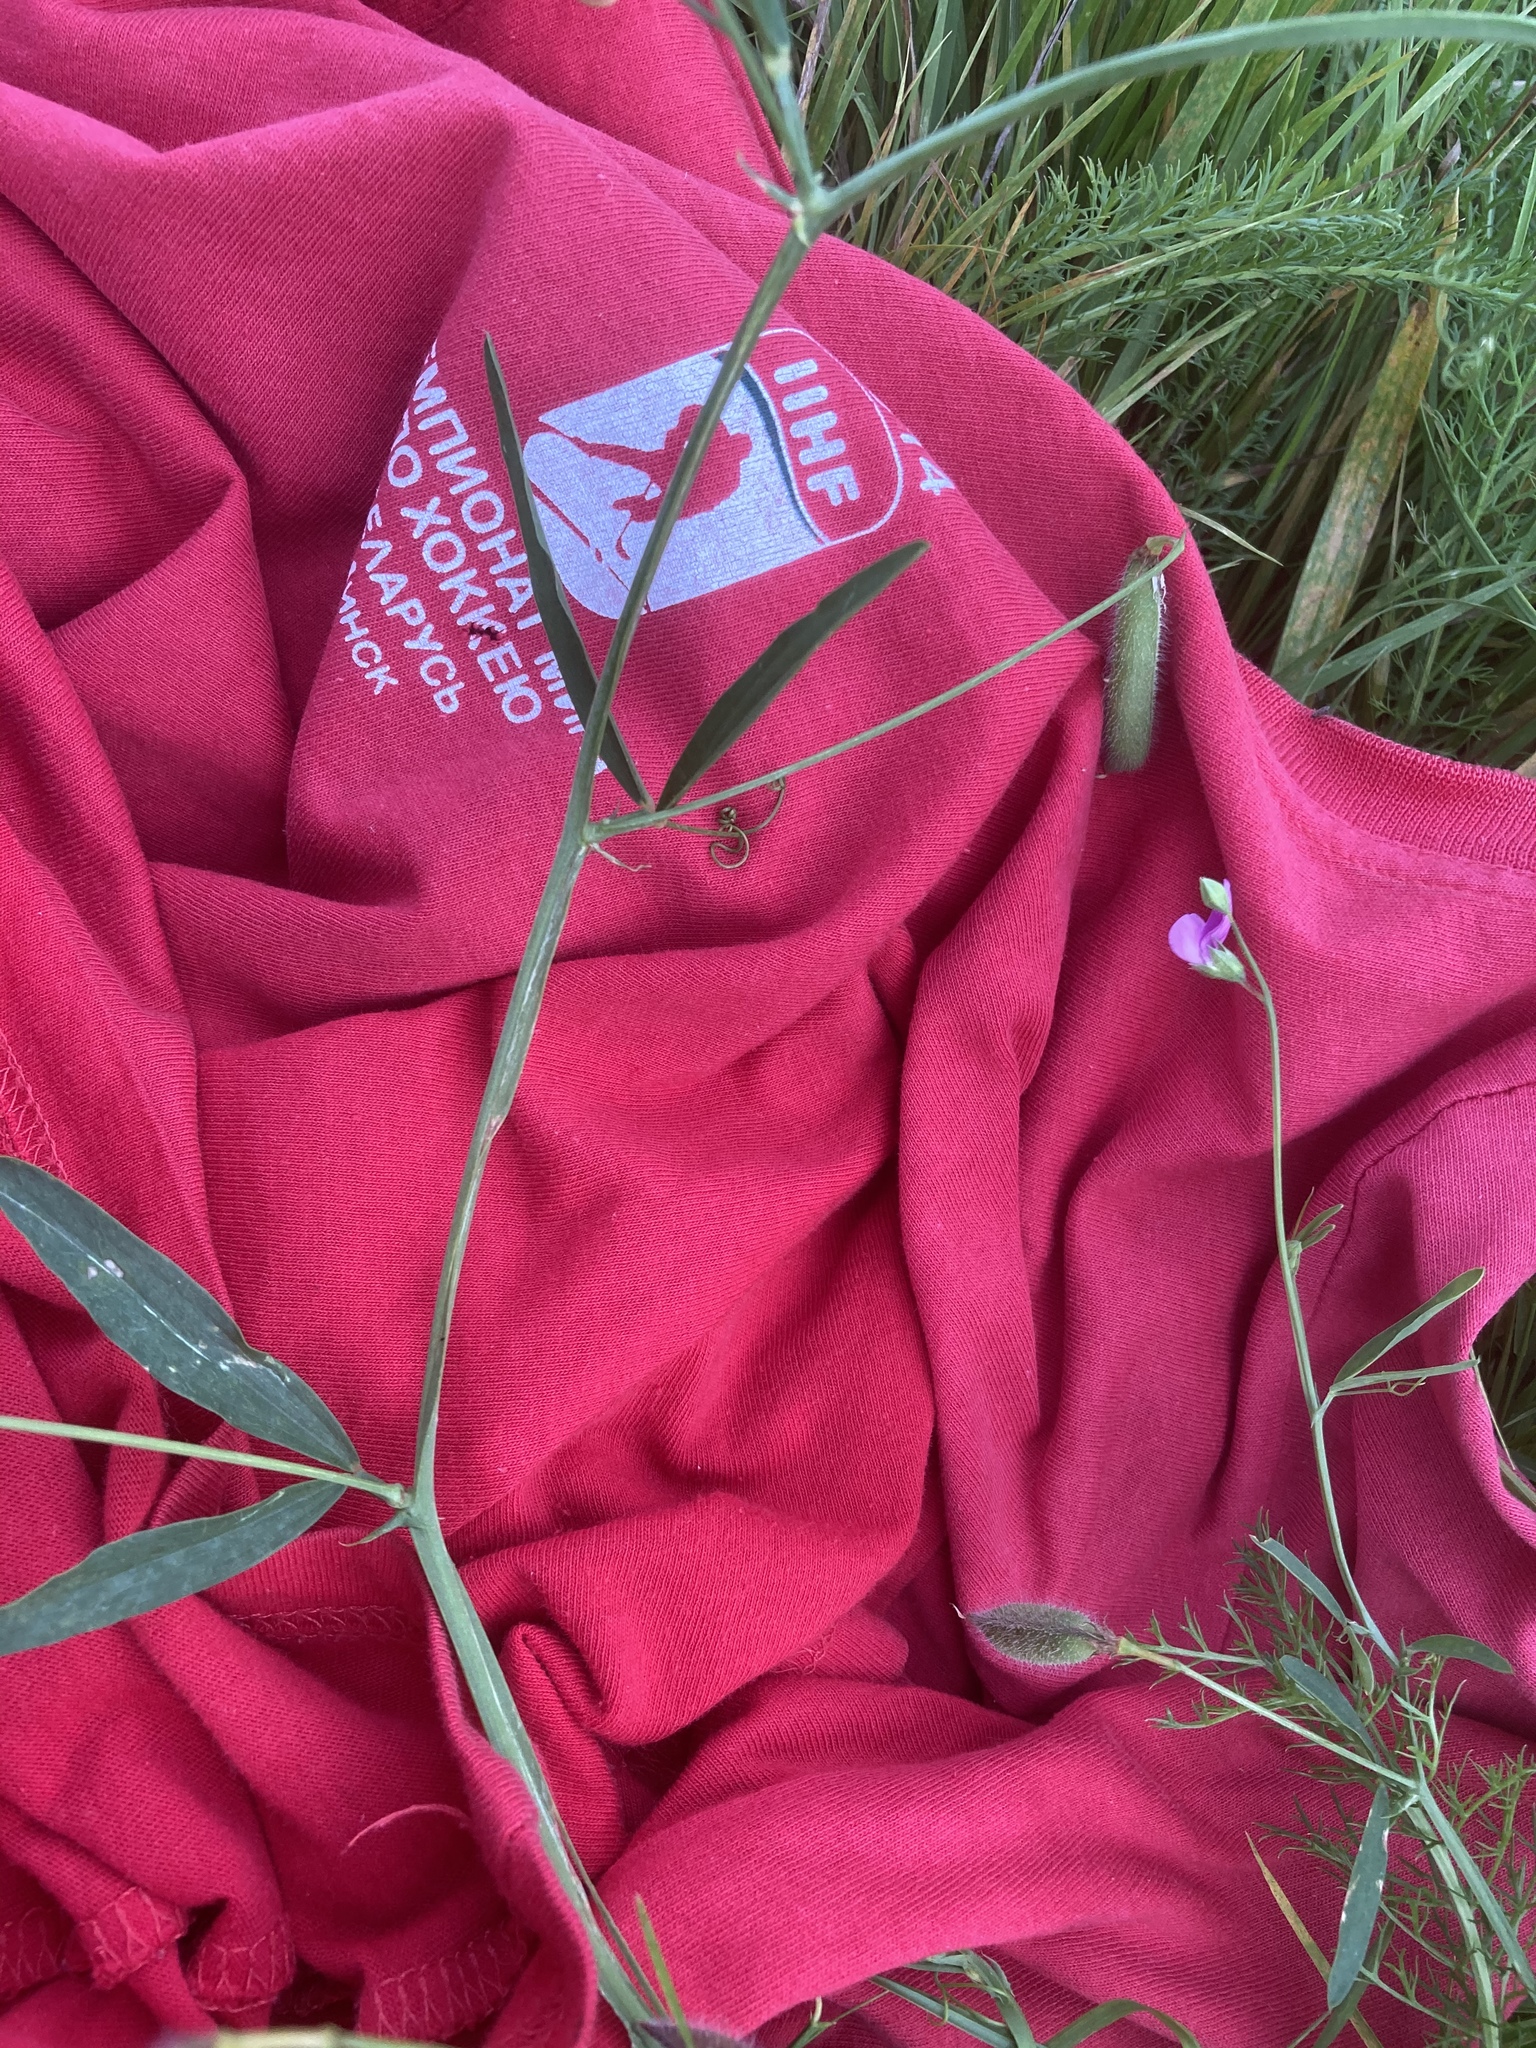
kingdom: Plantae
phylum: Tracheophyta
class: Magnoliopsida
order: Fabales
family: Fabaceae
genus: Lathyrus
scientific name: Lathyrus hirsutus
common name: Hairy vetchling
